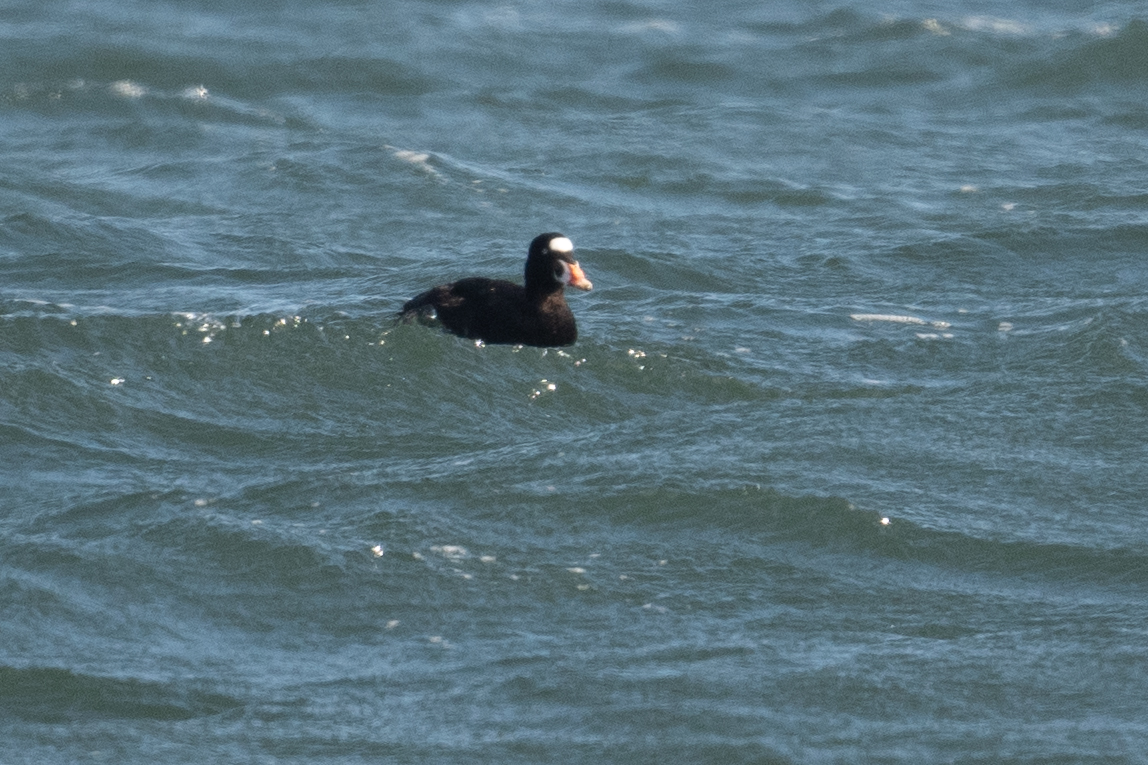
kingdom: Animalia
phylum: Chordata
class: Aves
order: Anseriformes
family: Anatidae
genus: Melanitta
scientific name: Melanitta perspicillata
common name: Surf scoter
